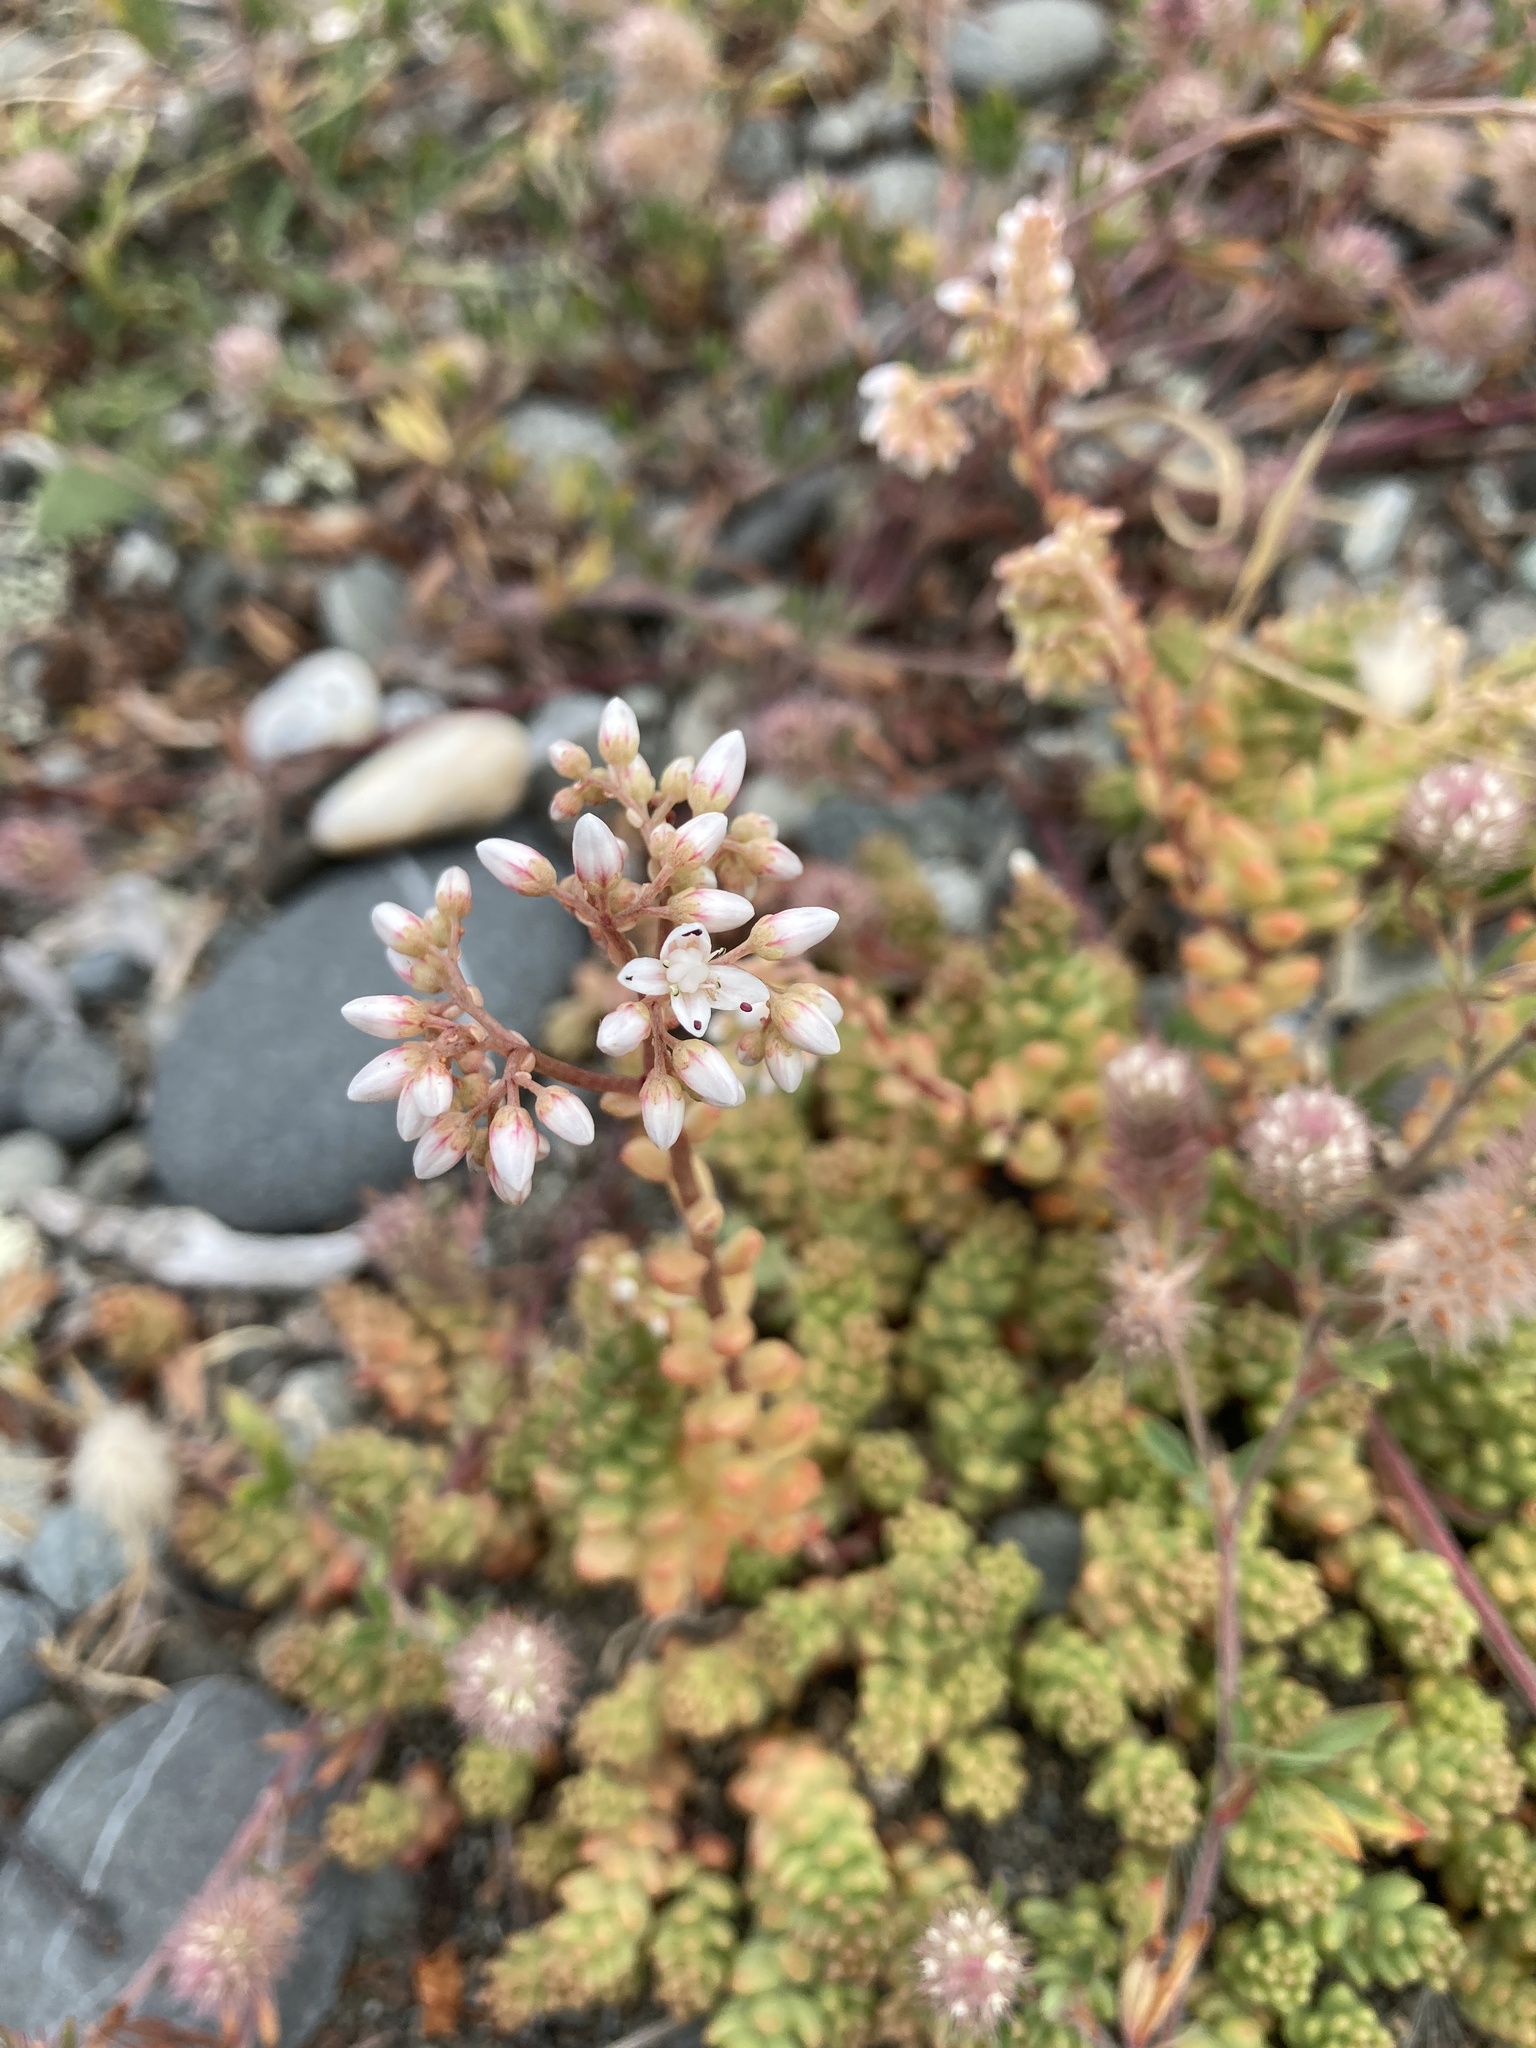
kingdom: Plantae
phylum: Tracheophyta
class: Magnoliopsida
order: Saxifragales
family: Crassulaceae
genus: Sedum
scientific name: Sedum album
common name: White stonecrop
